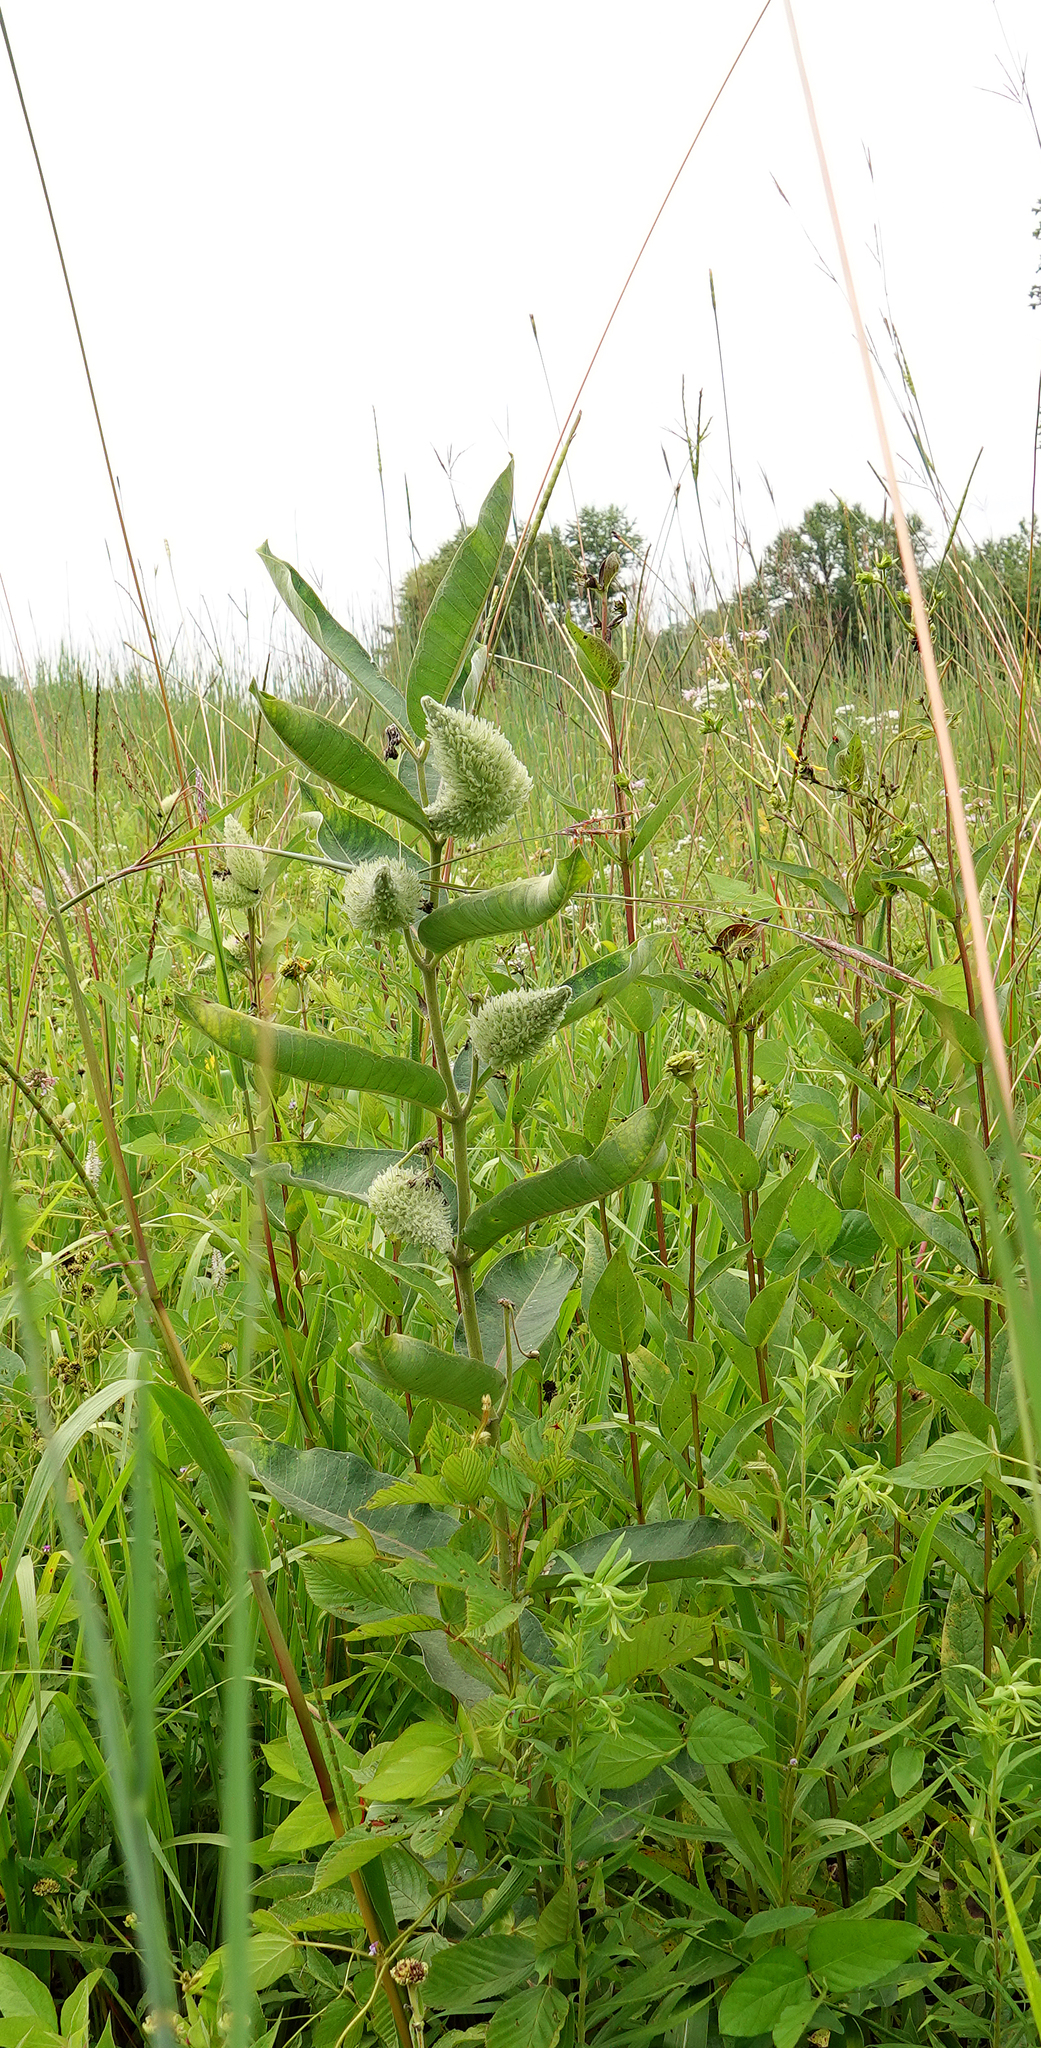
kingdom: Plantae
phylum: Tracheophyta
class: Magnoliopsida
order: Gentianales
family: Apocynaceae
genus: Asclepias
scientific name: Asclepias syriaca
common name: Common milkweed
